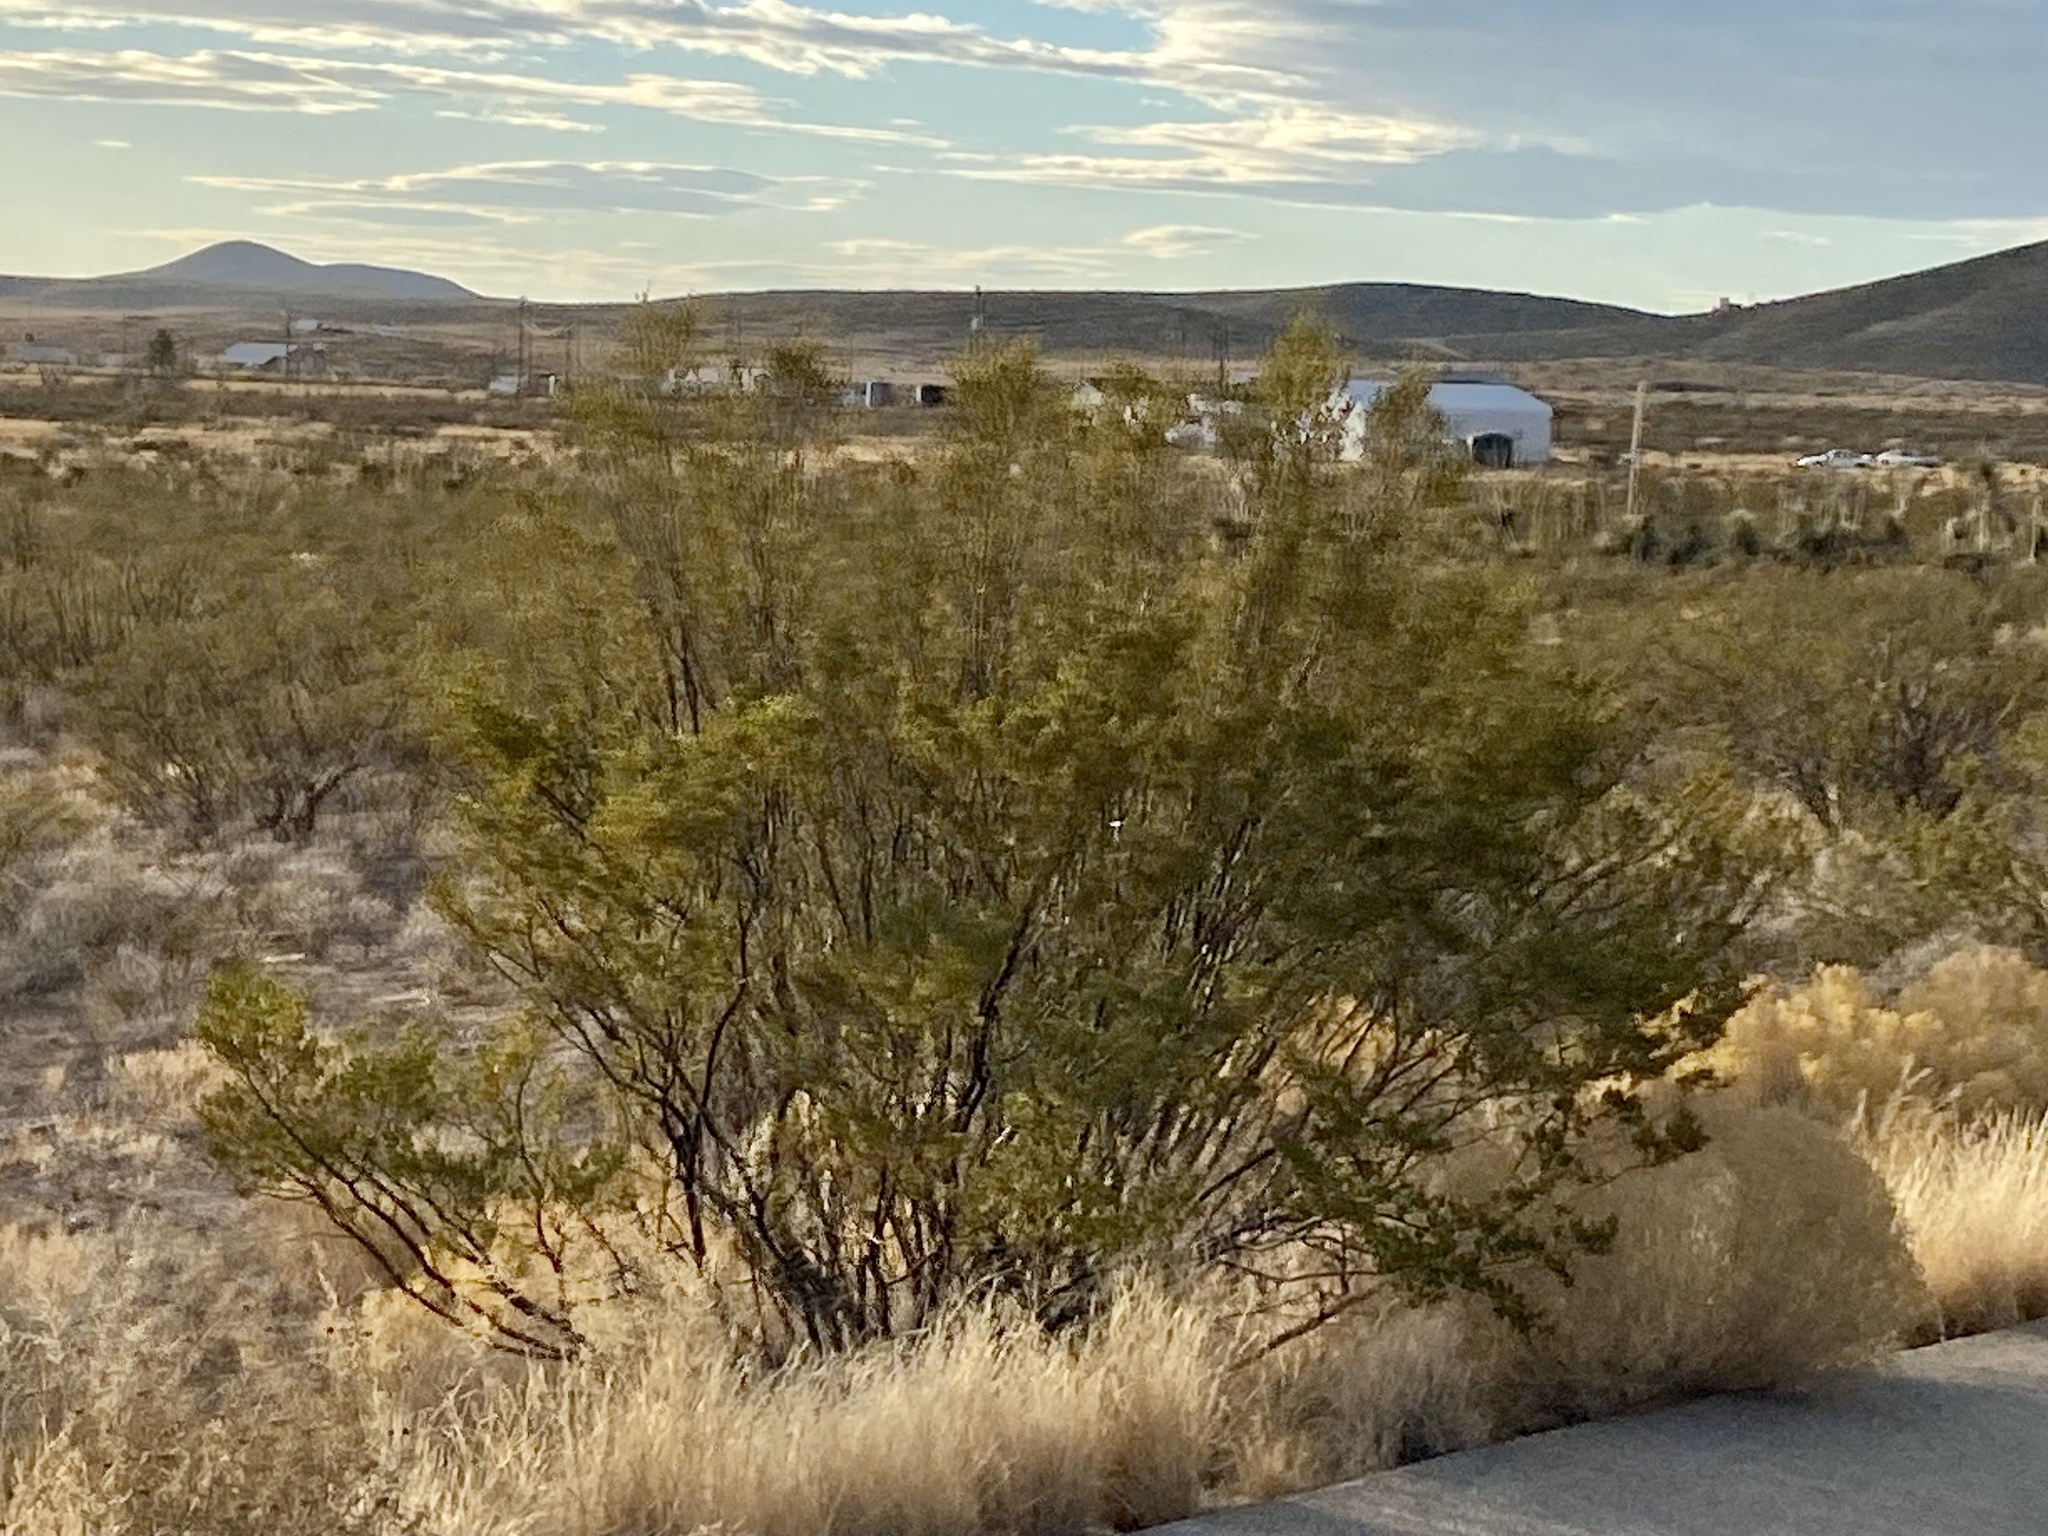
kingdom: Plantae
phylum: Tracheophyta
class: Magnoliopsida
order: Zygophyllales
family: Zygophyllaceae
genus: Larrea
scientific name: Larrea tridentata
